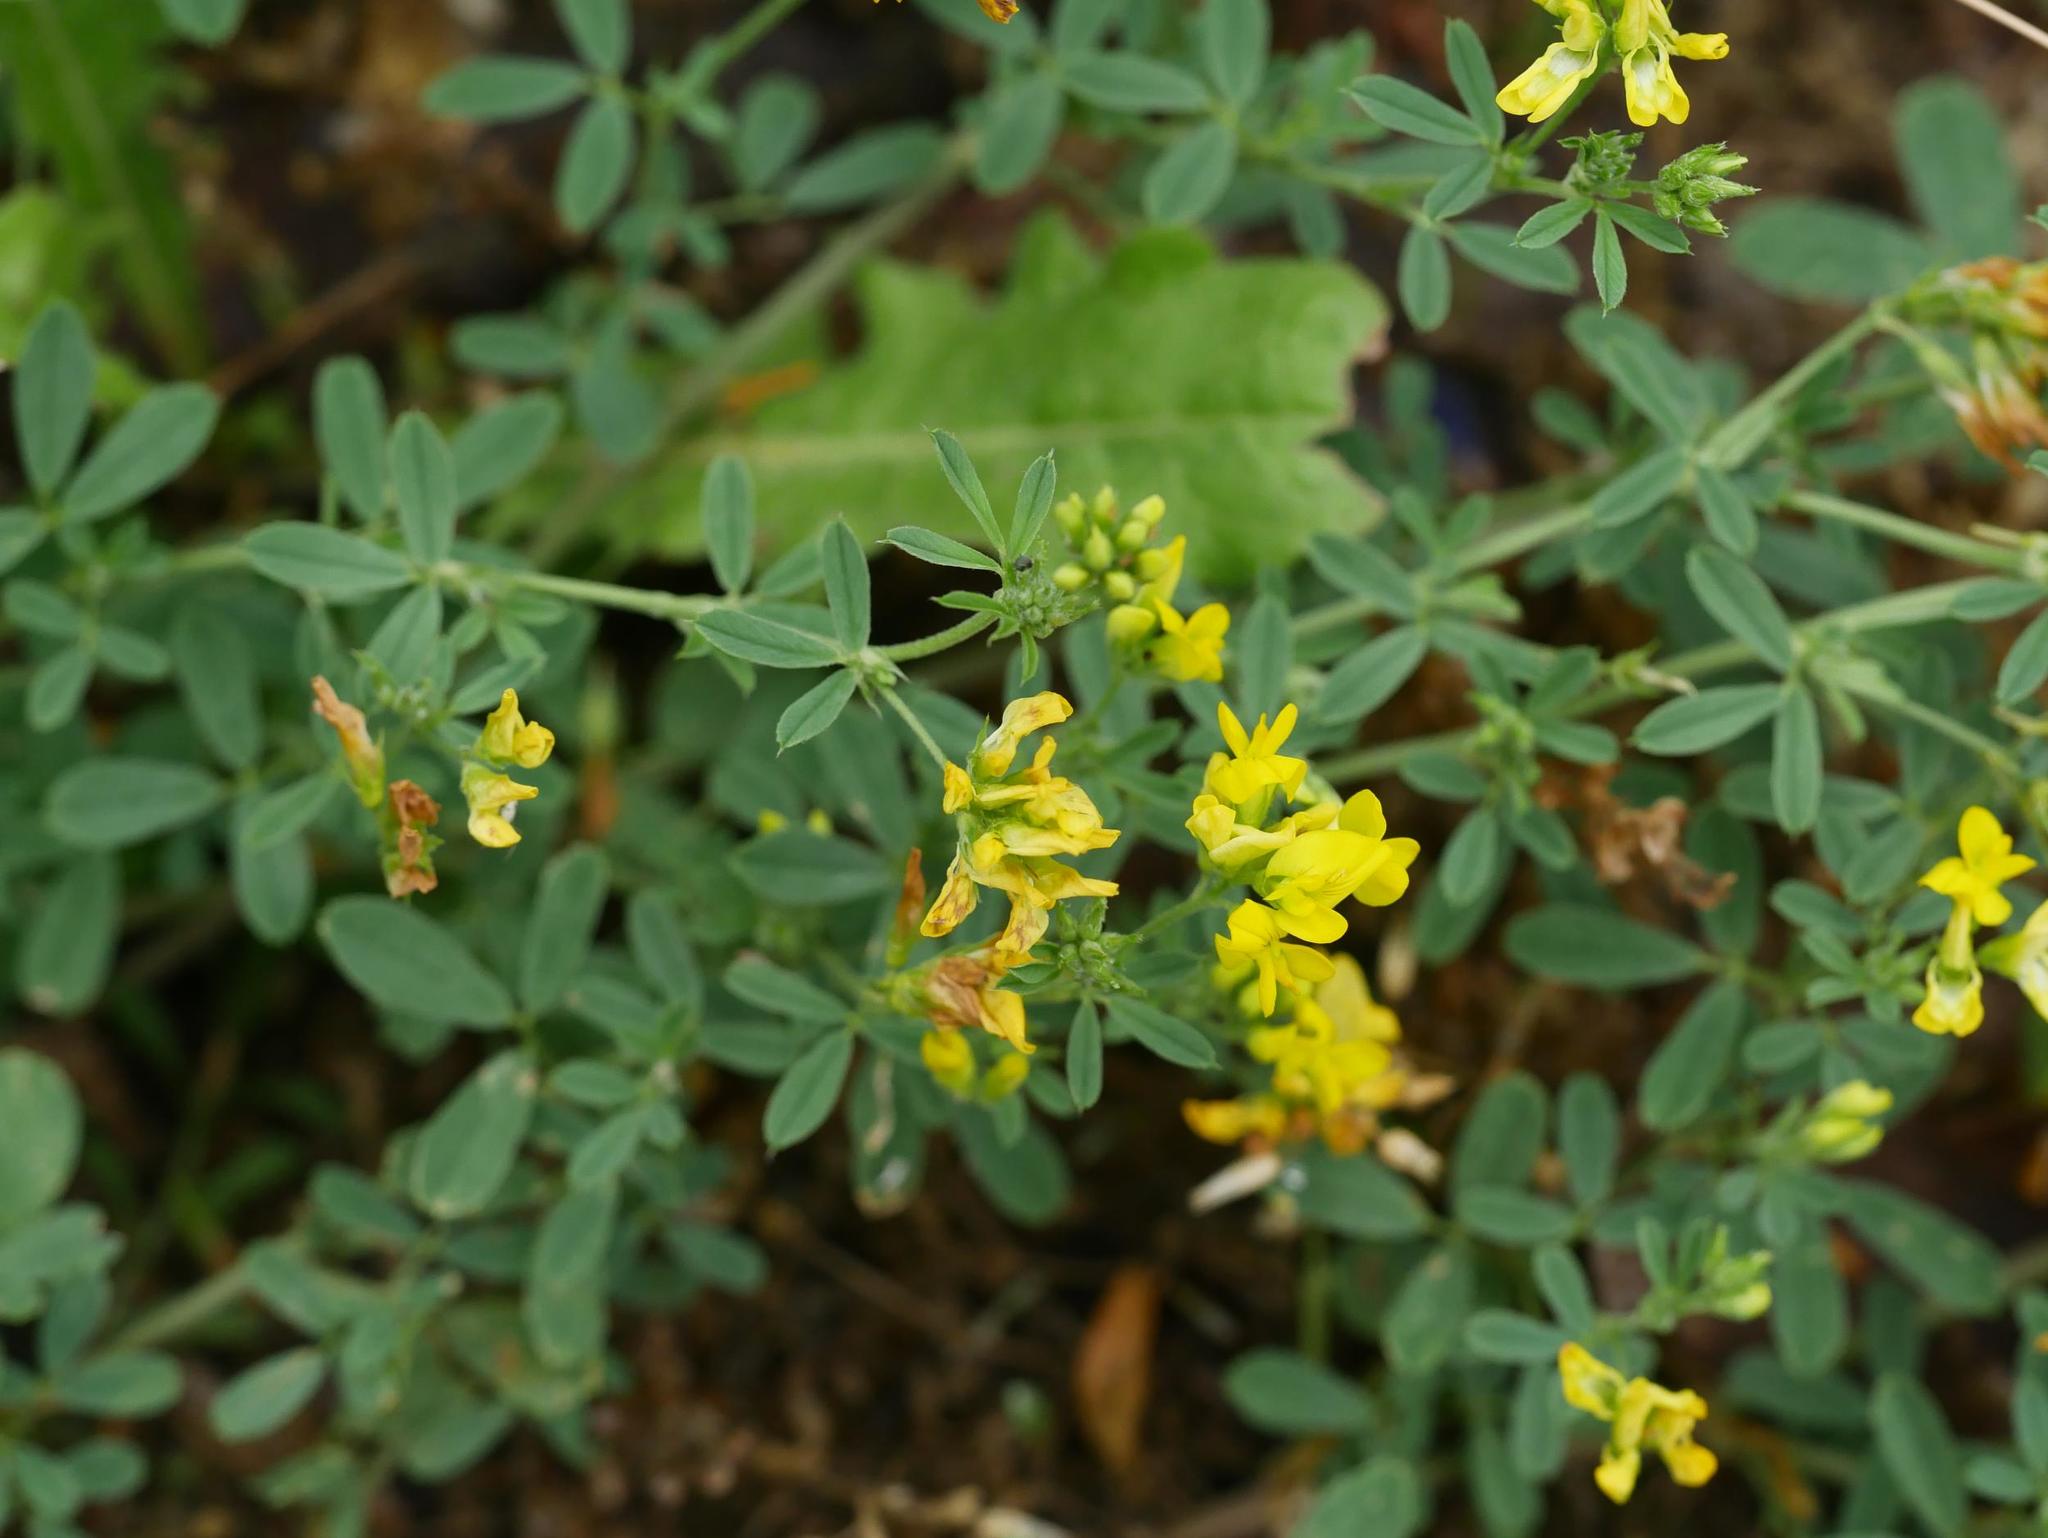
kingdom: Plantae
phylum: Tracheophyta
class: Magnoliopsida
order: Fabales
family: Fabaceae
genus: Medicago
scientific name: Medicago falcata
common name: Sickle medick
